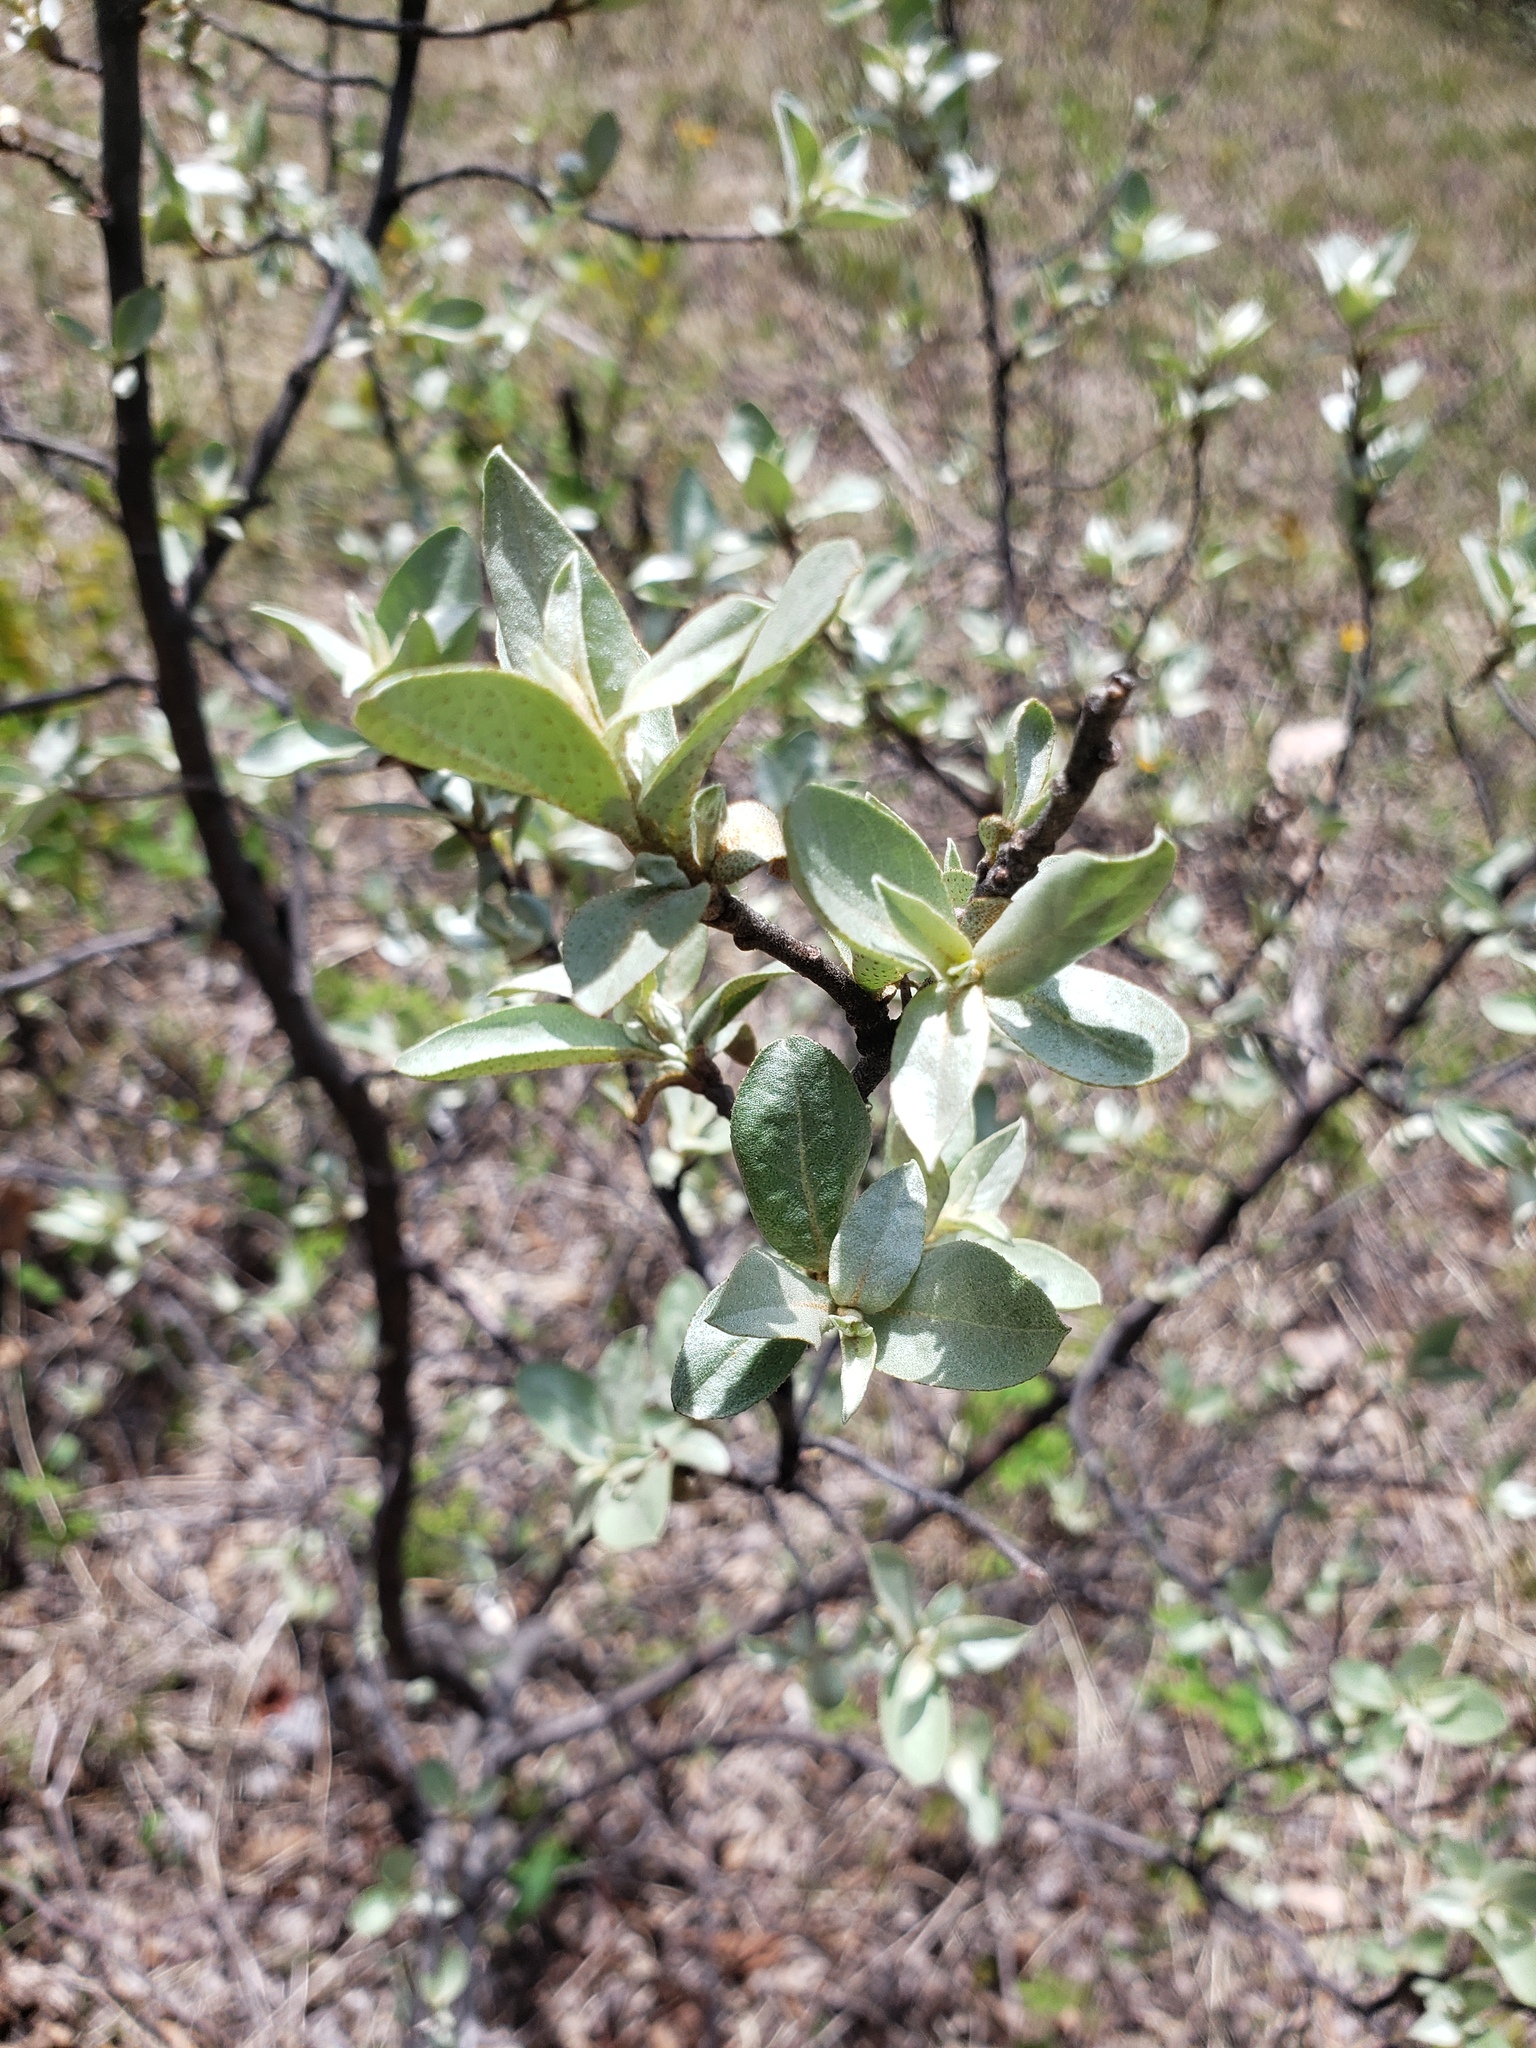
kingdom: Plantae
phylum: Tracheophyta
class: Magnoliopsida
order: Rosales
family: Elaeagnaceae
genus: Elaeagnus
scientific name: Elaeagnus commutata
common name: Silverberry
